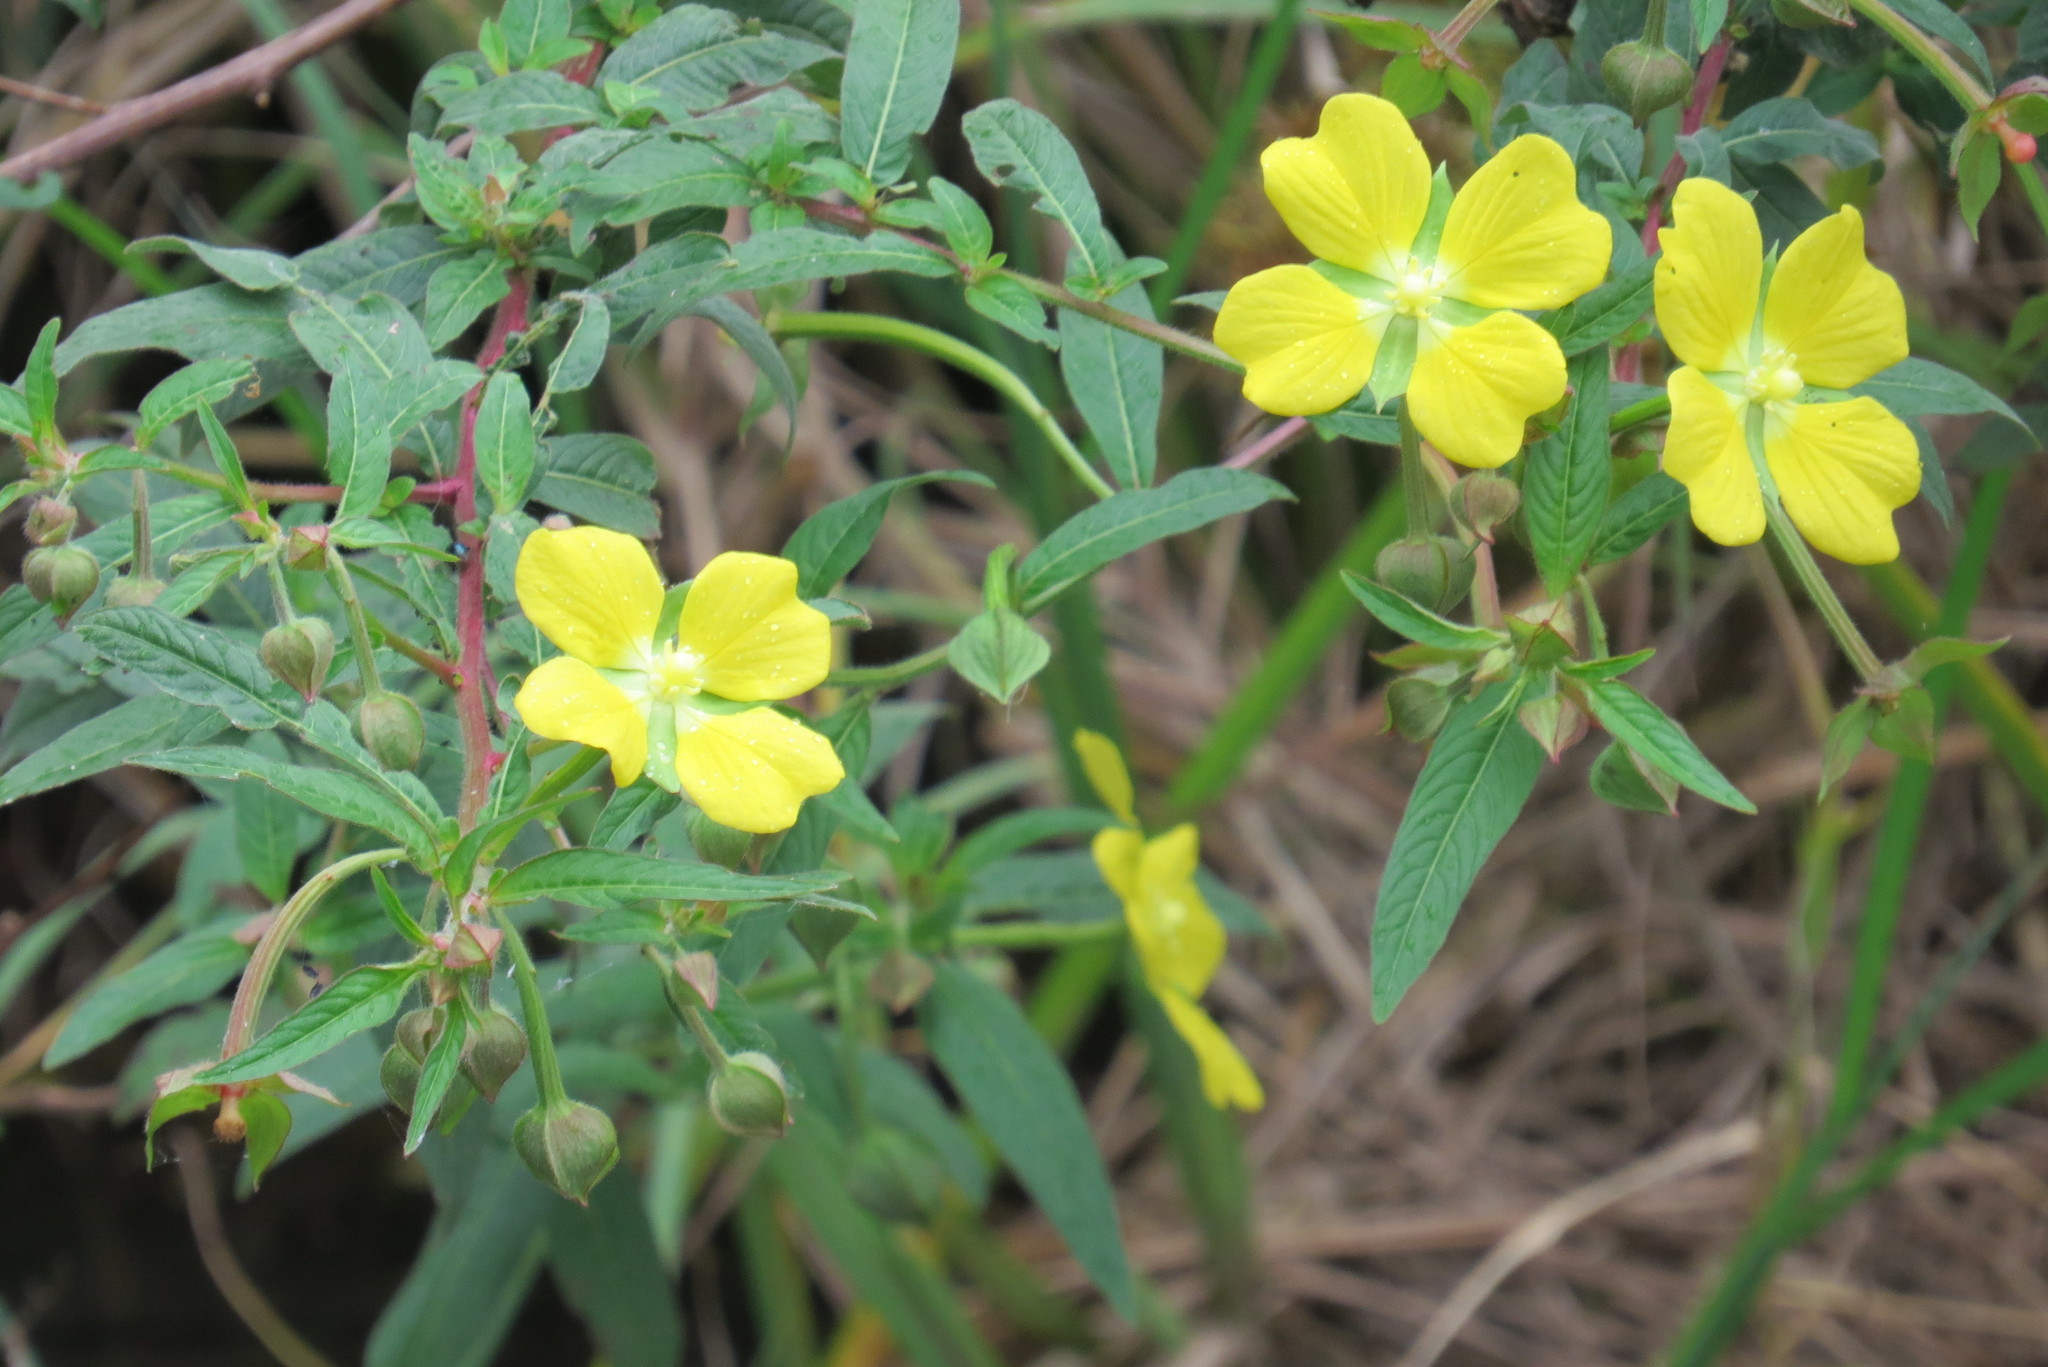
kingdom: Plantae
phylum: Tracheophyta
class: Magnoliopsida
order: Myrtales
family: Onagraceae
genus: Ludwigia
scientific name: Ludwigia octovalvis
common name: Water-primrose
